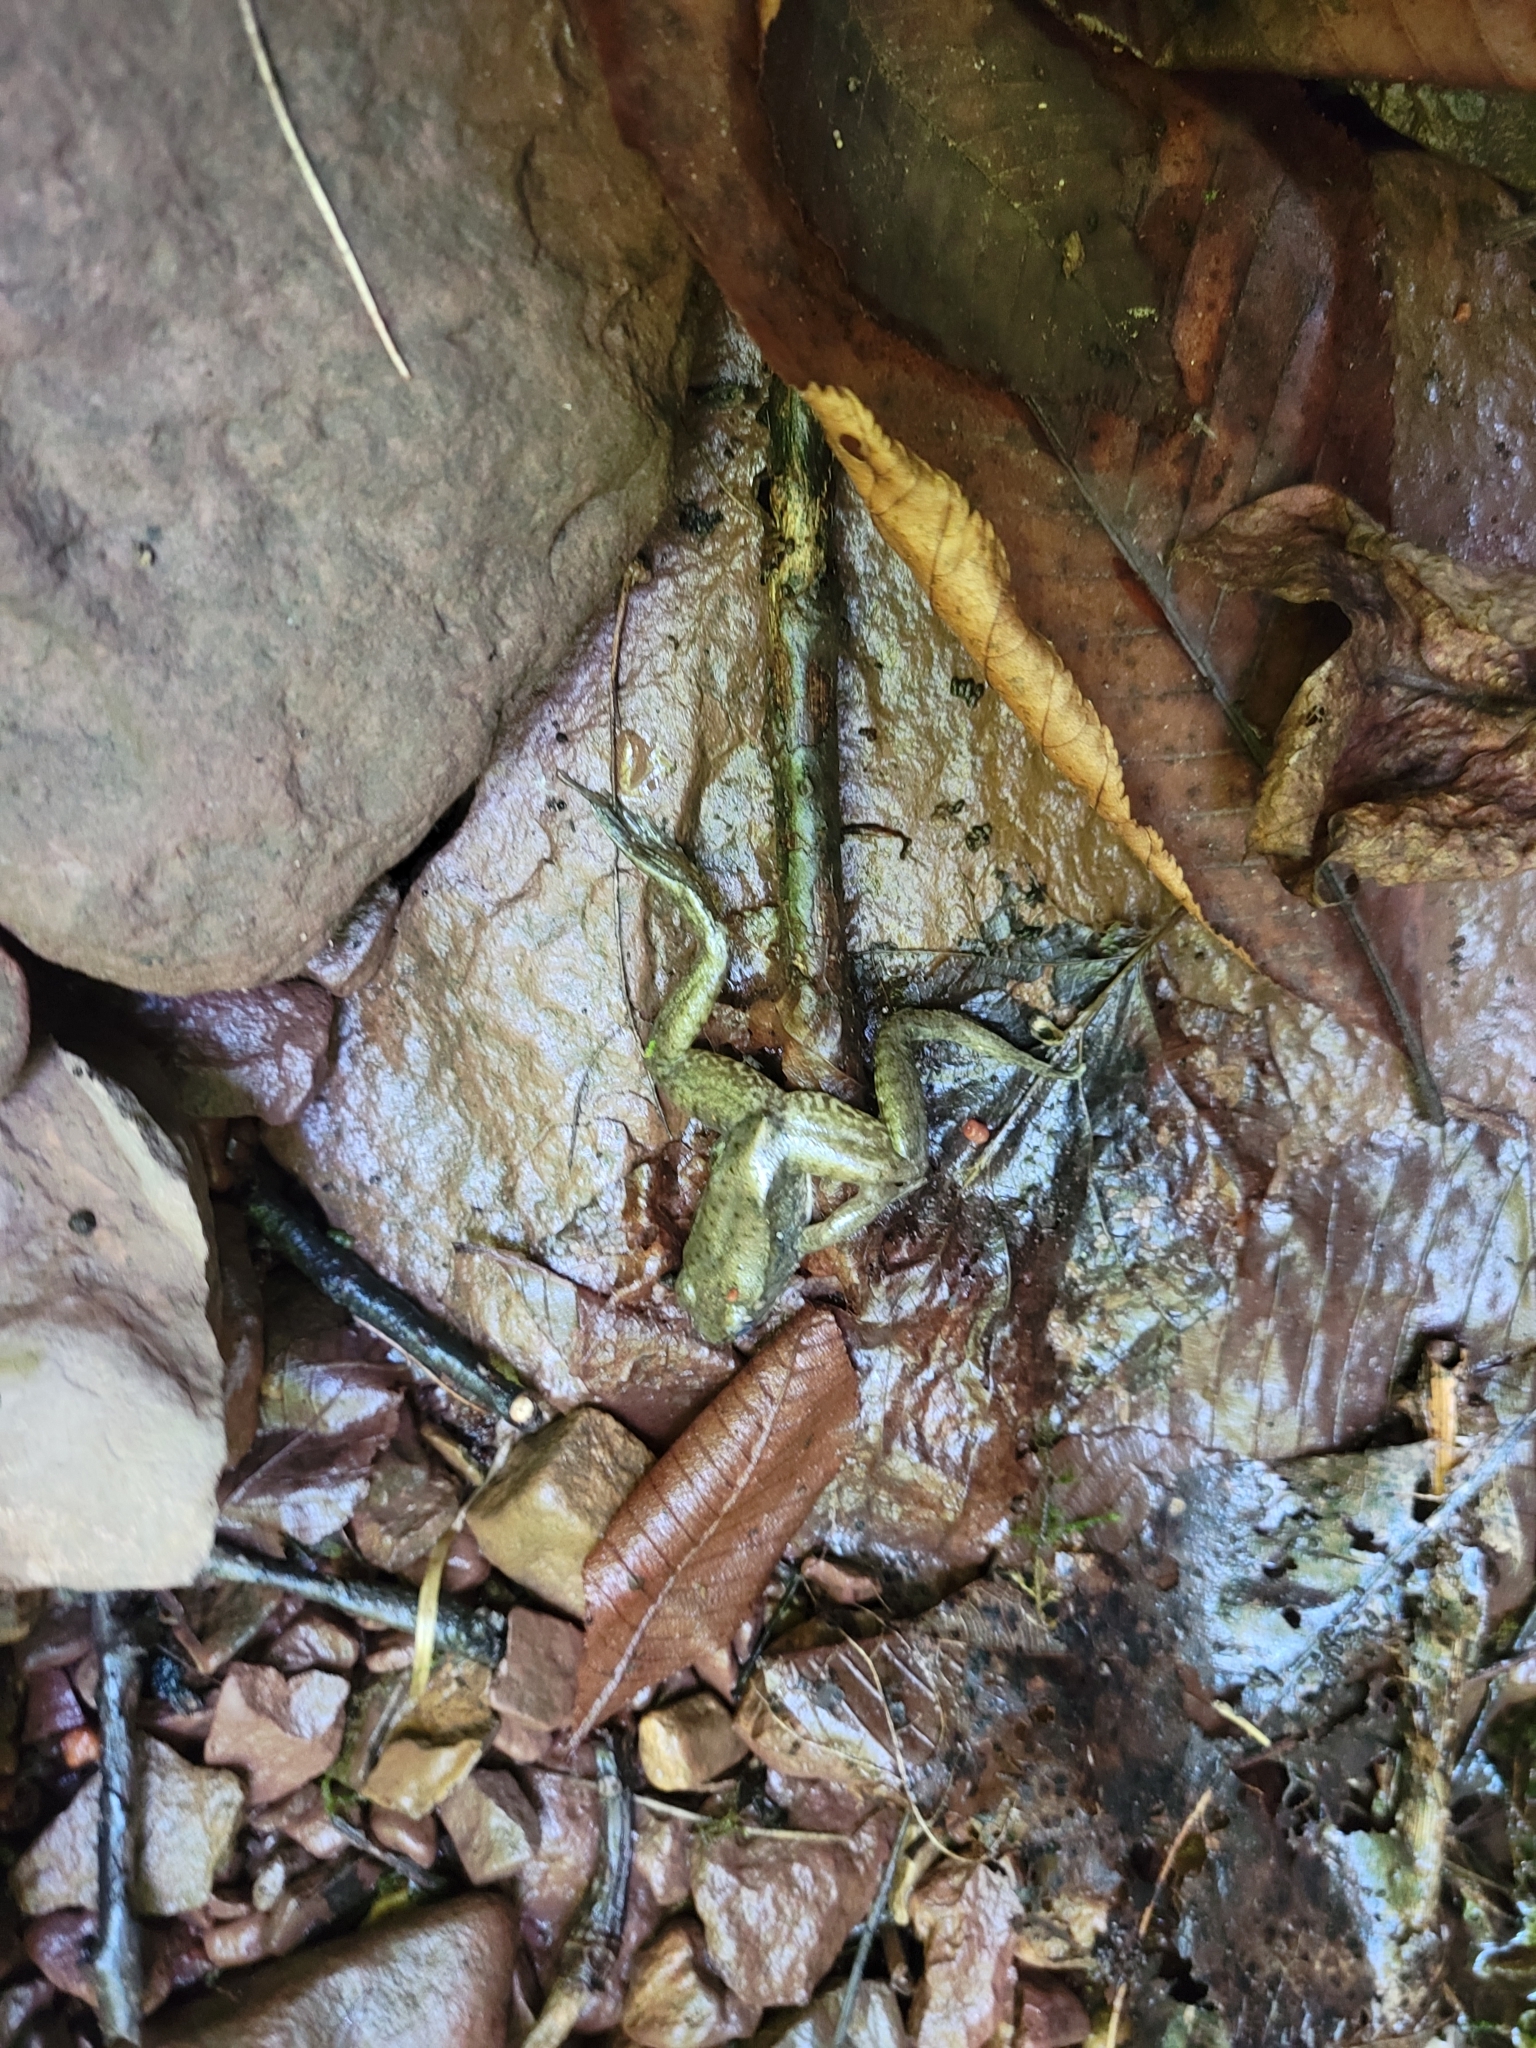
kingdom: Animalia
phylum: Chordata
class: Amphibia
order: Anura
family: Ranidae
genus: Lithobates
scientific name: Lithobates clamitans
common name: Green frog
